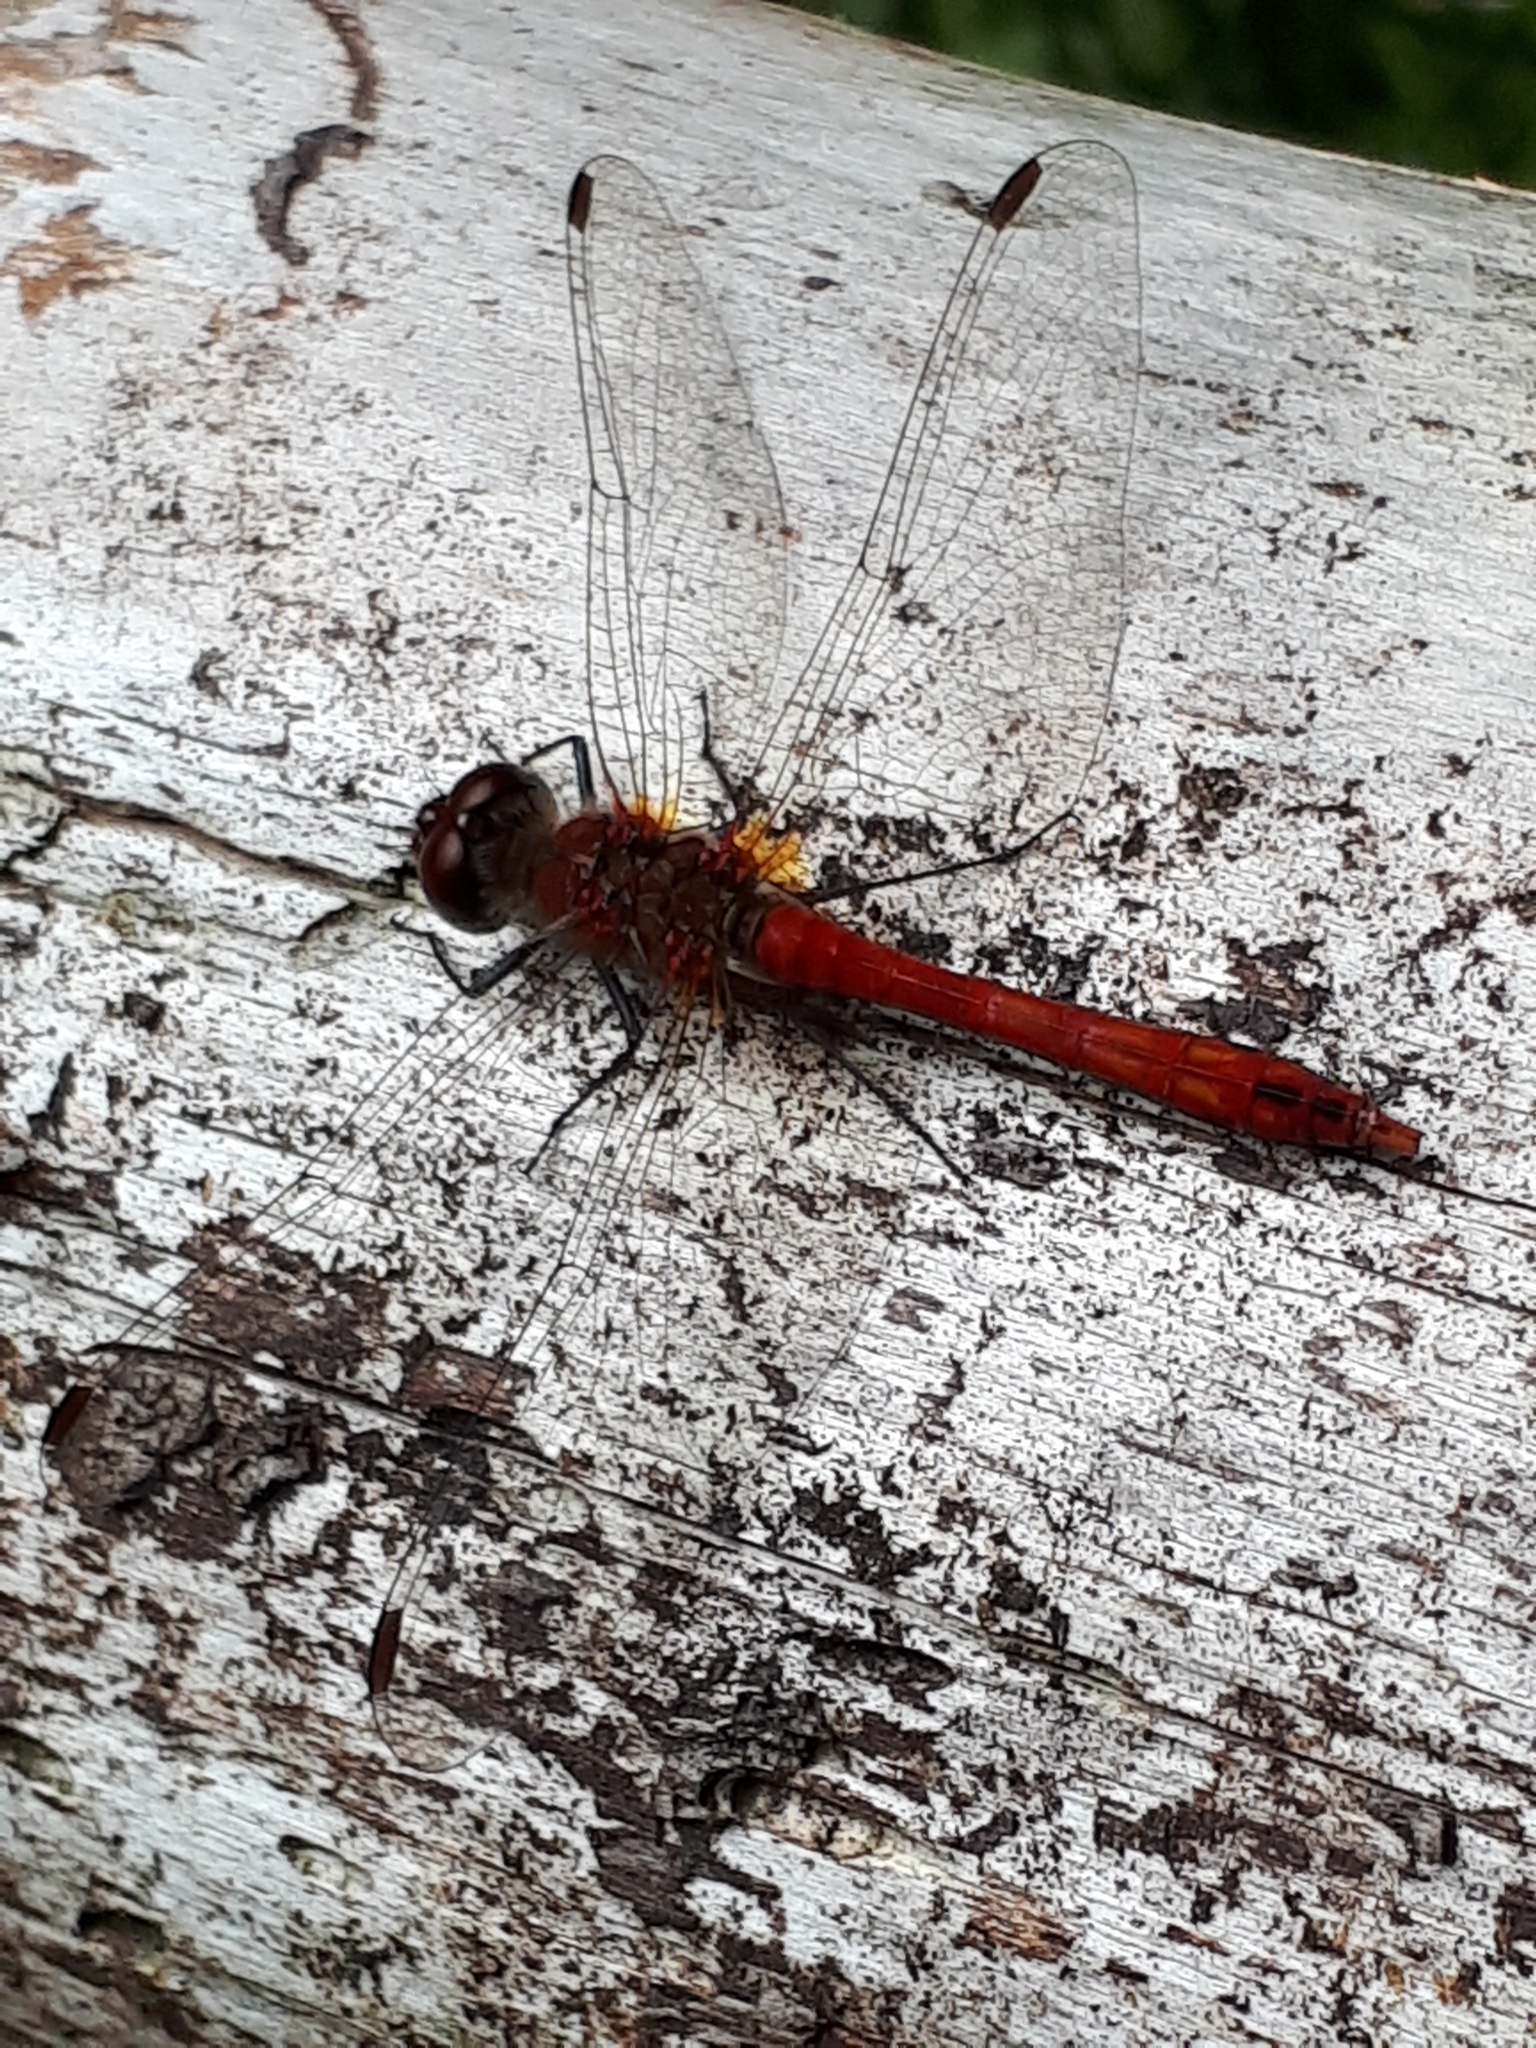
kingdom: Animalia
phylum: Arthropoda
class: Insecta
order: Odonata
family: Libellulidae
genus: Sympetrum
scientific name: Sympetrum sanguineum
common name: Ruddy darter
